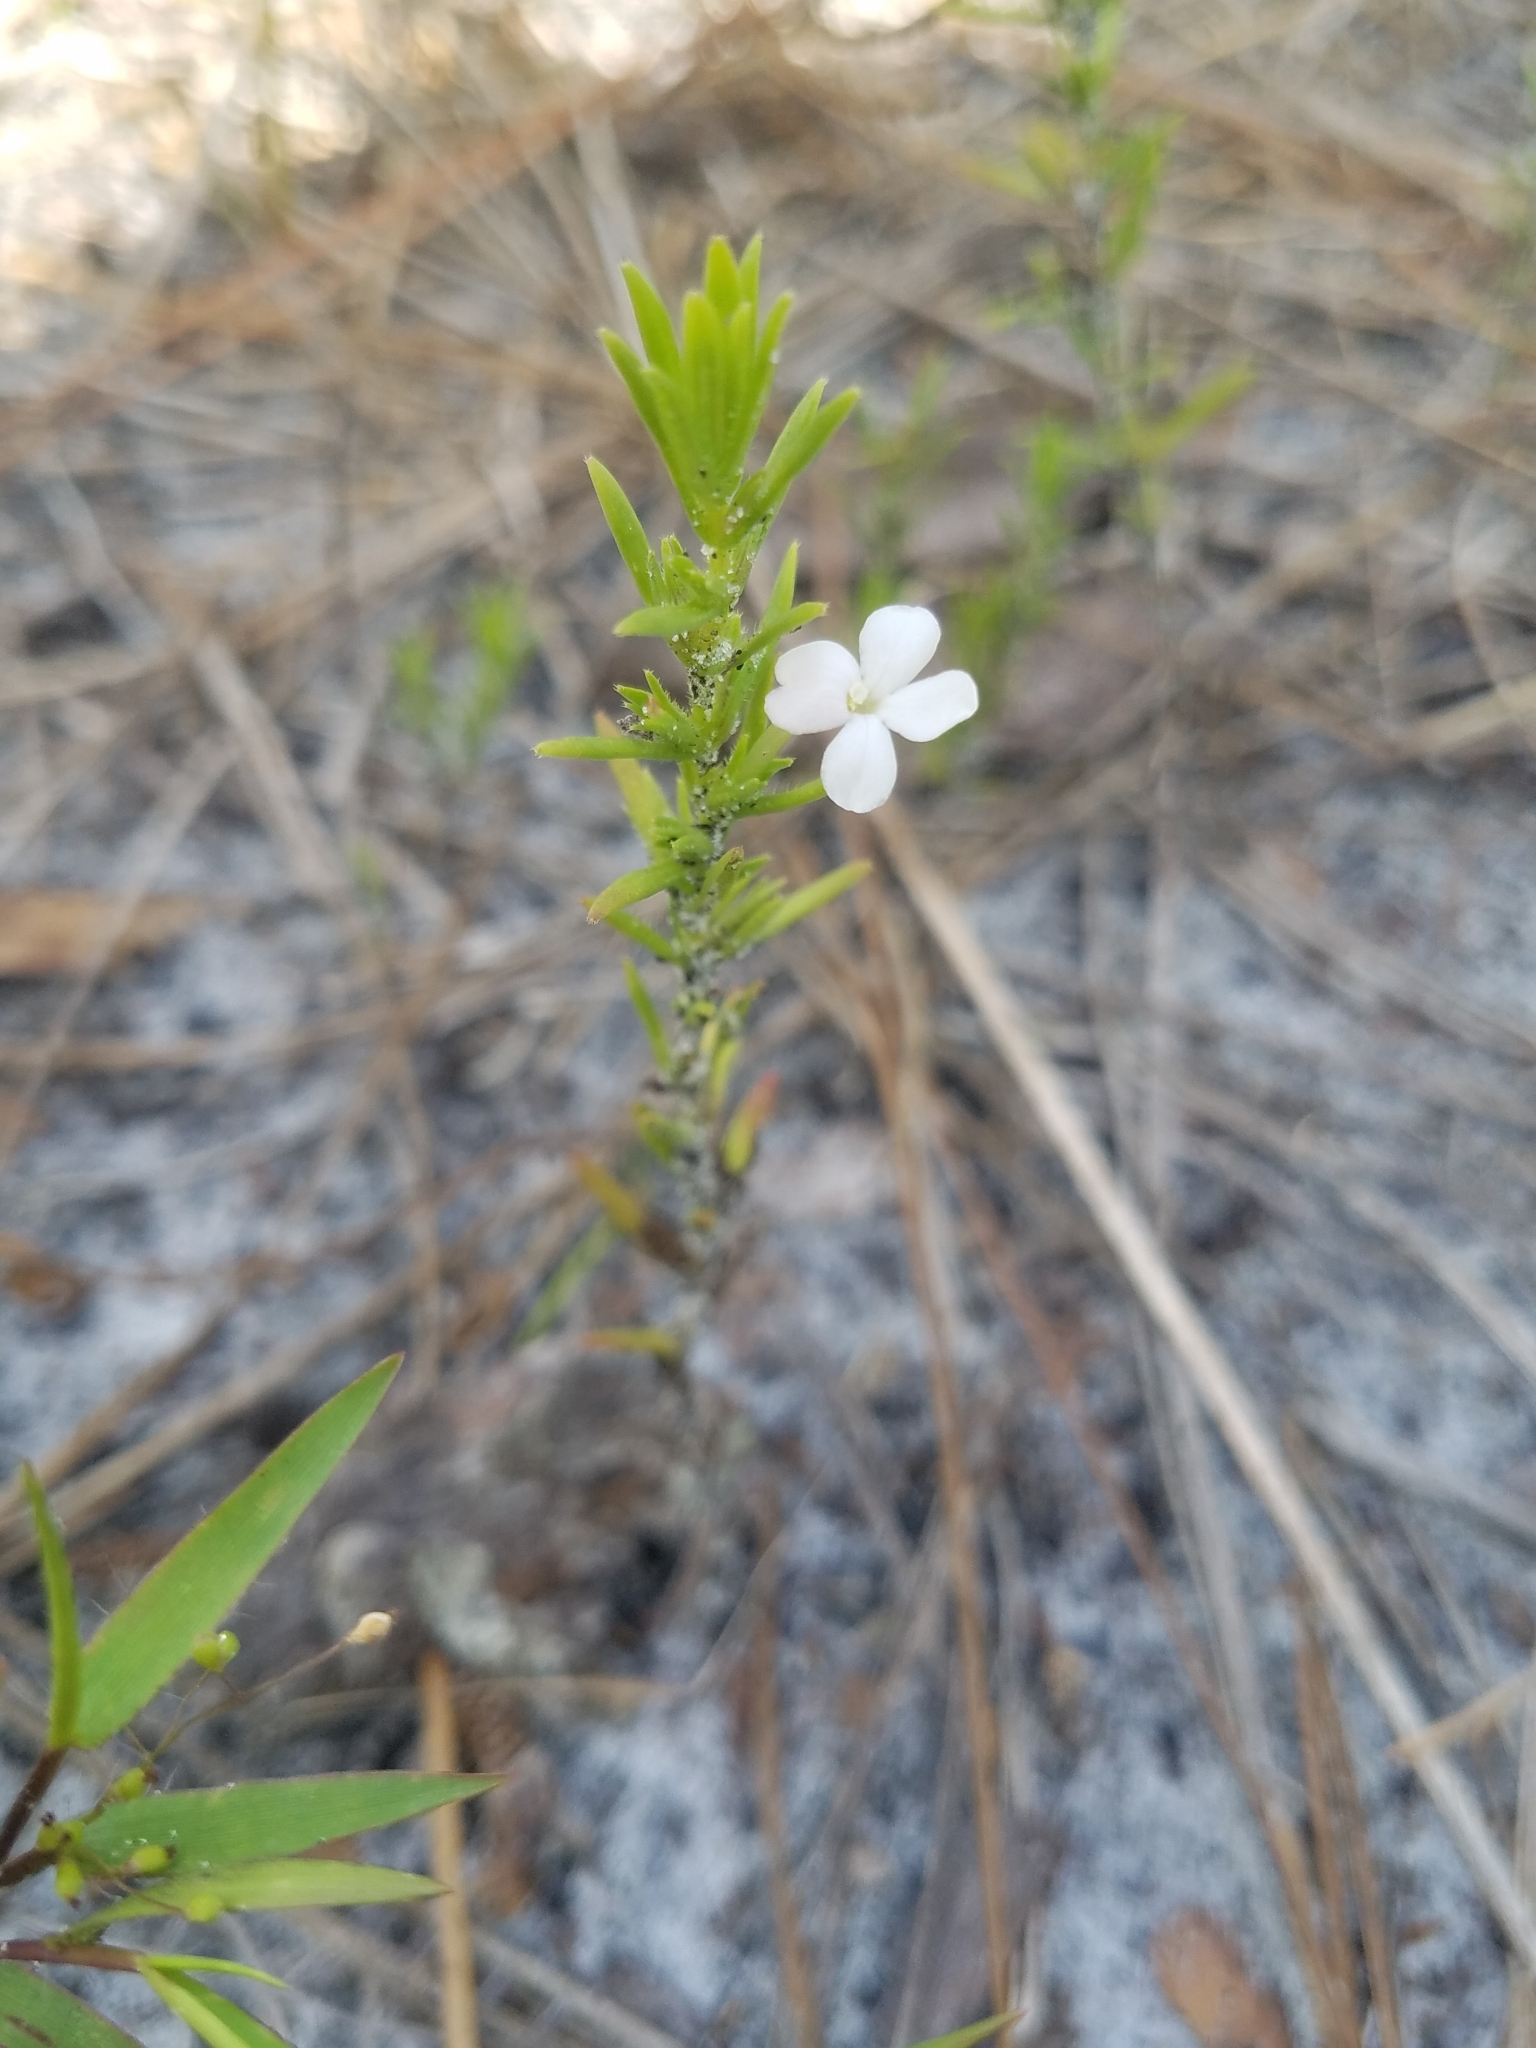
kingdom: Plantae
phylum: Tracheophyta
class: Magnoliopsida
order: Lamiales
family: Plantaginaceae
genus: Gratiola
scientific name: Gratiola hispida
